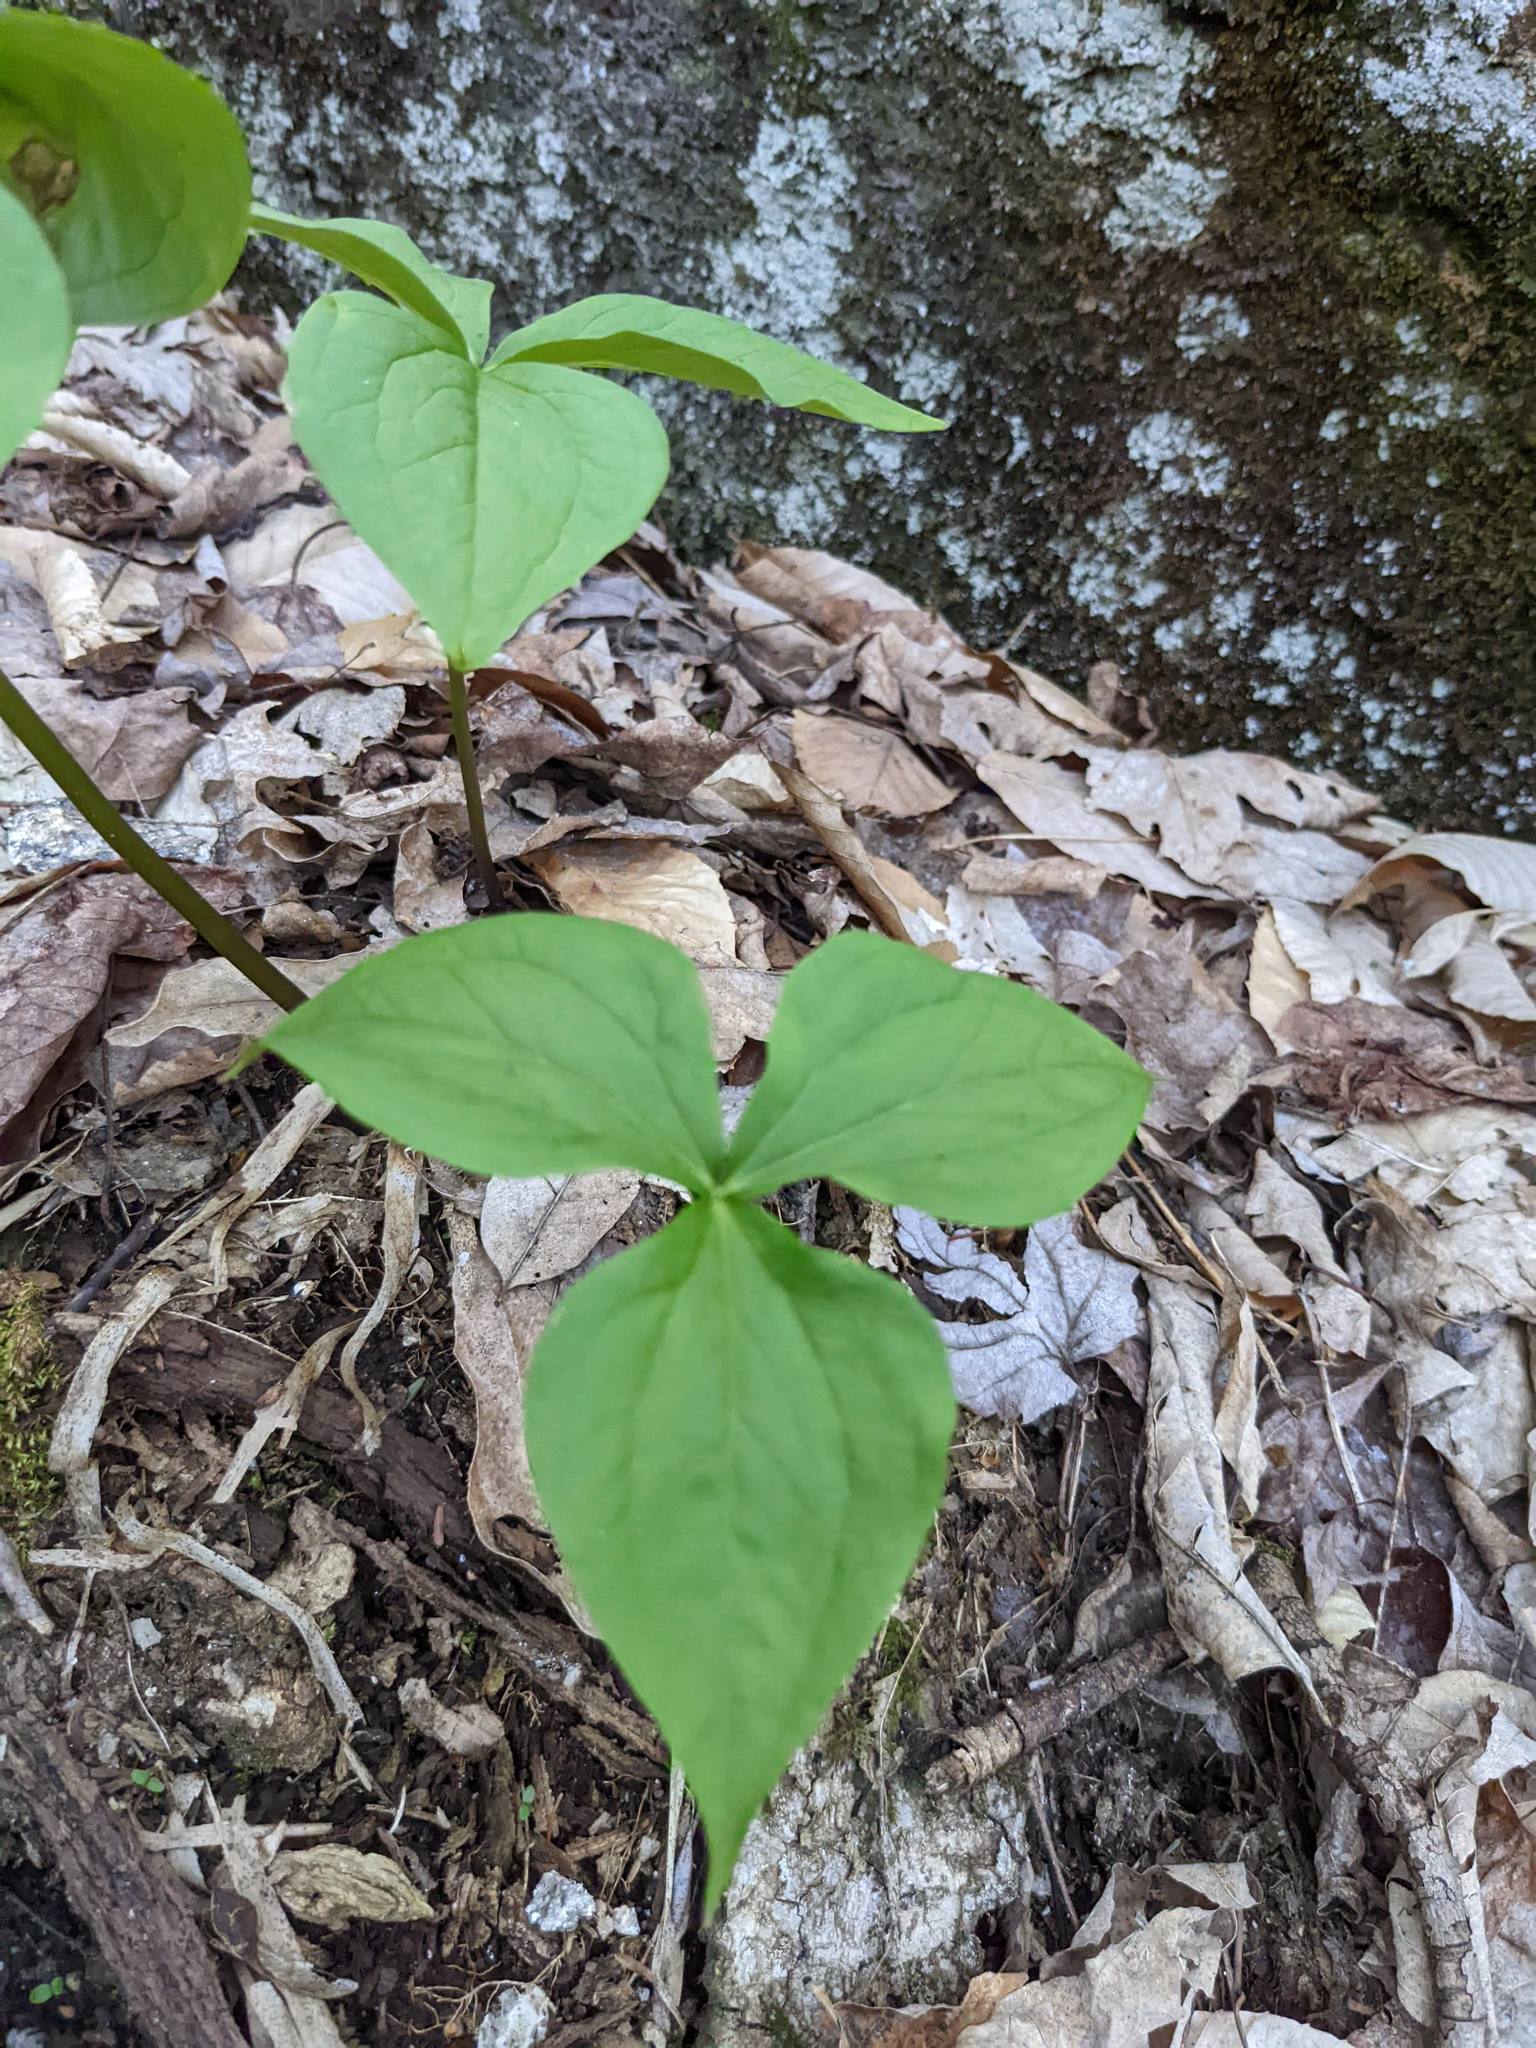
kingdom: Plantae
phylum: Tracheophyta
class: Liliopsida
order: Liliales
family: Melanthiaceae
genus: Trillium
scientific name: Trillium erectum
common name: Purple trillium
